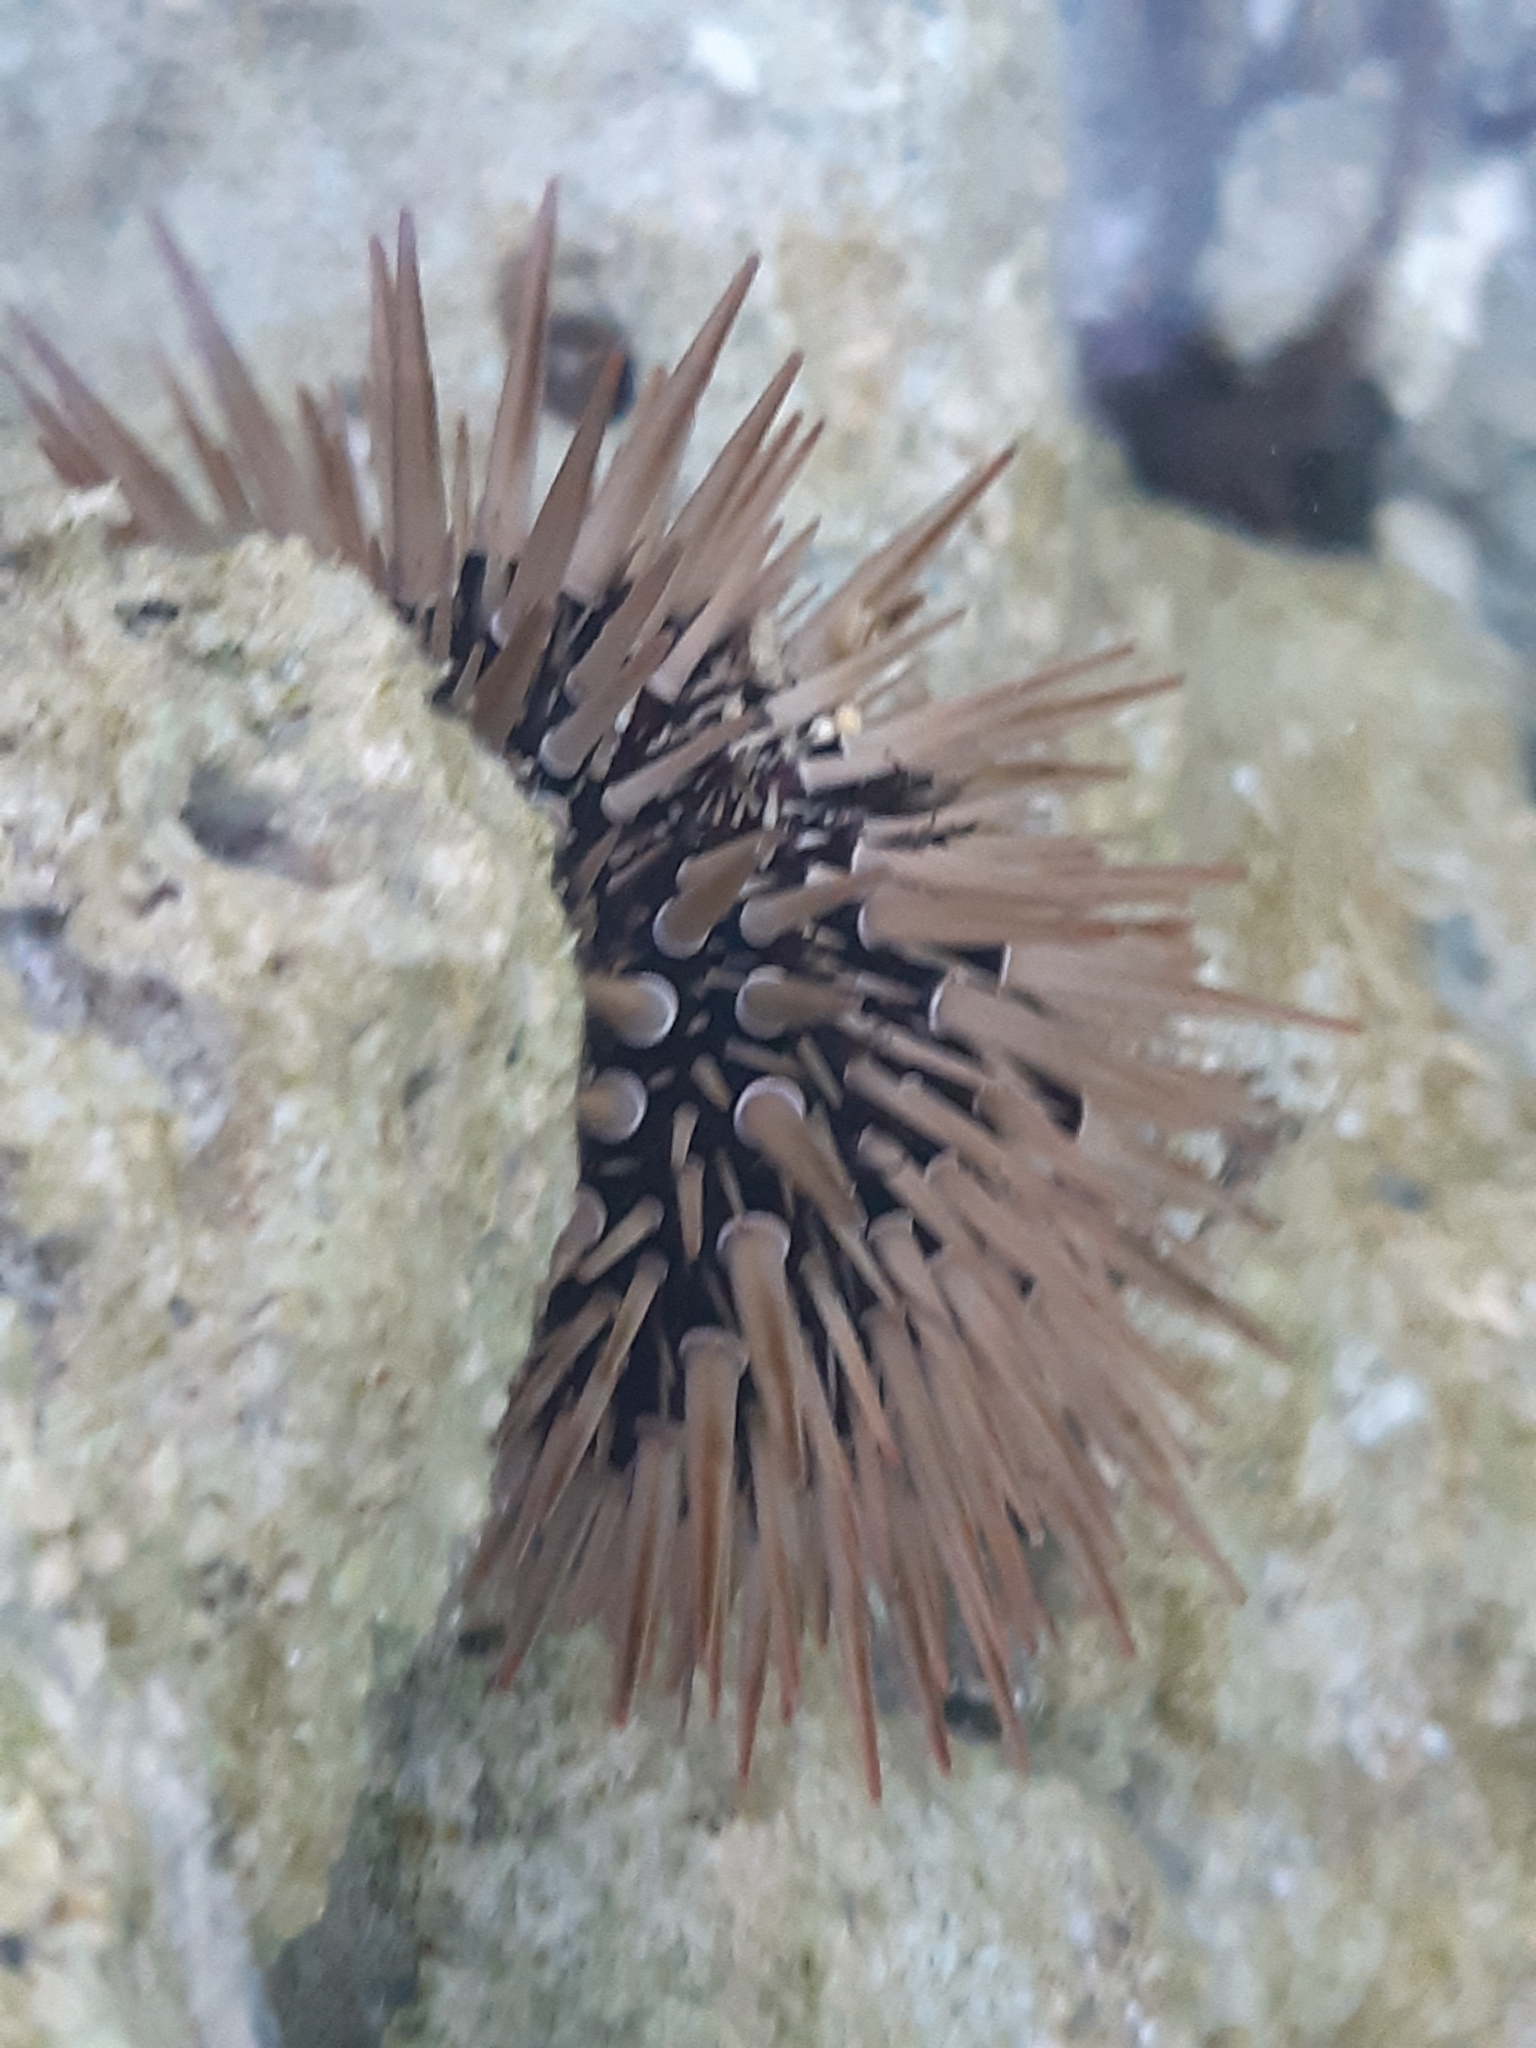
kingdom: Animalia
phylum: Echinodermata
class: Echinoidea
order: Camarodonta
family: Echinometridae
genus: Echinometra
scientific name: Echinometra mathaei
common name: Rock-boring urchin
